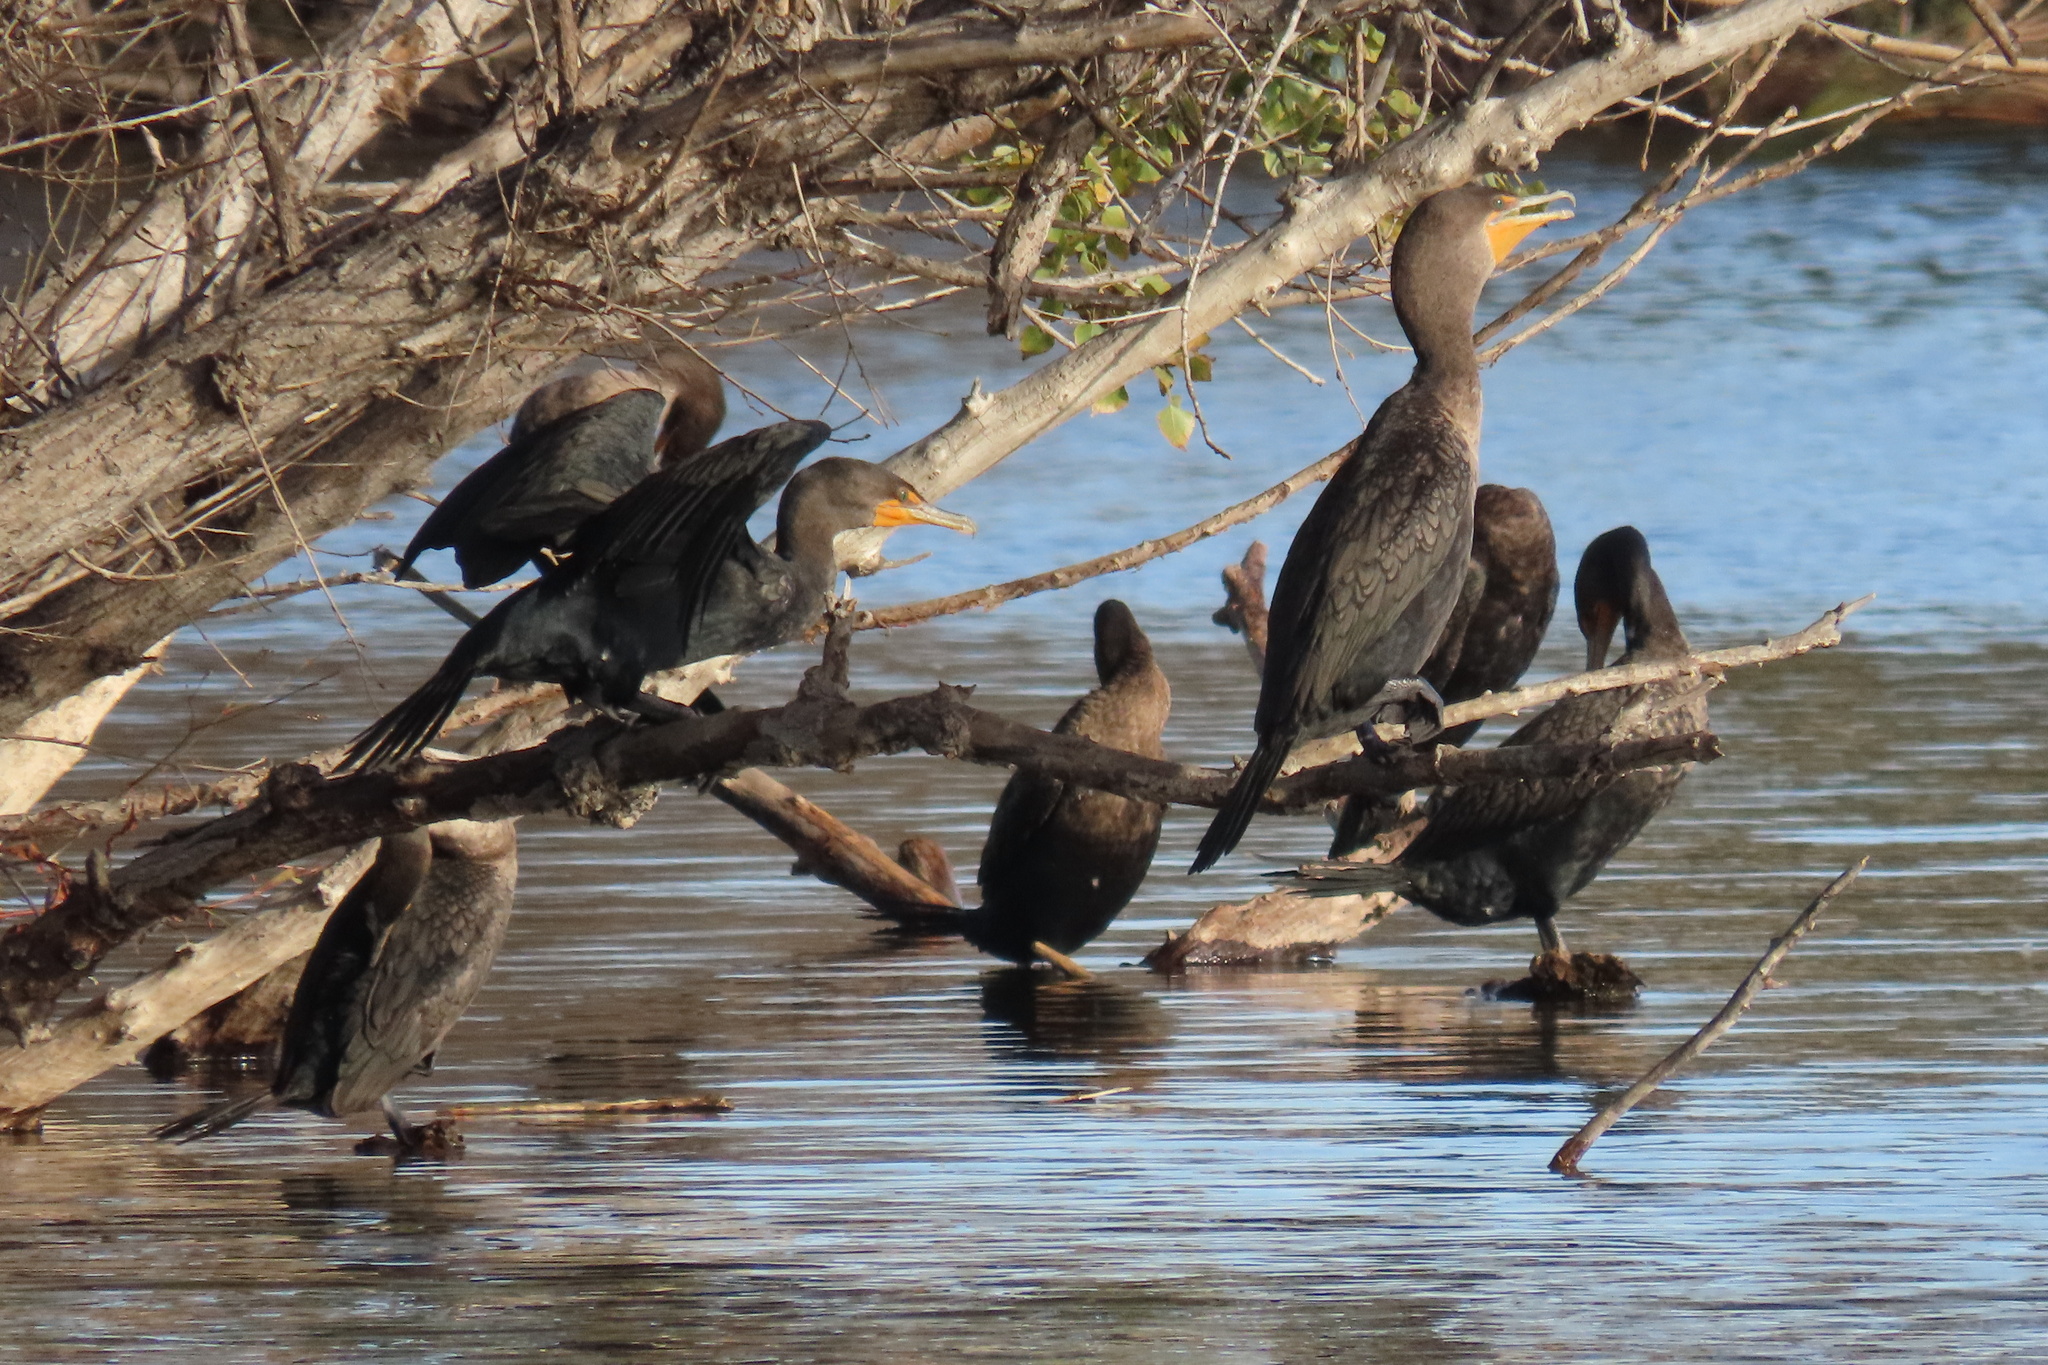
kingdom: Animalia
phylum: Chordata
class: Aves
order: Suliformes
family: Phalacrocoracidae
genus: Phalacrocorax
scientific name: Phalacrocorax auritus
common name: Double-crested cormorant
